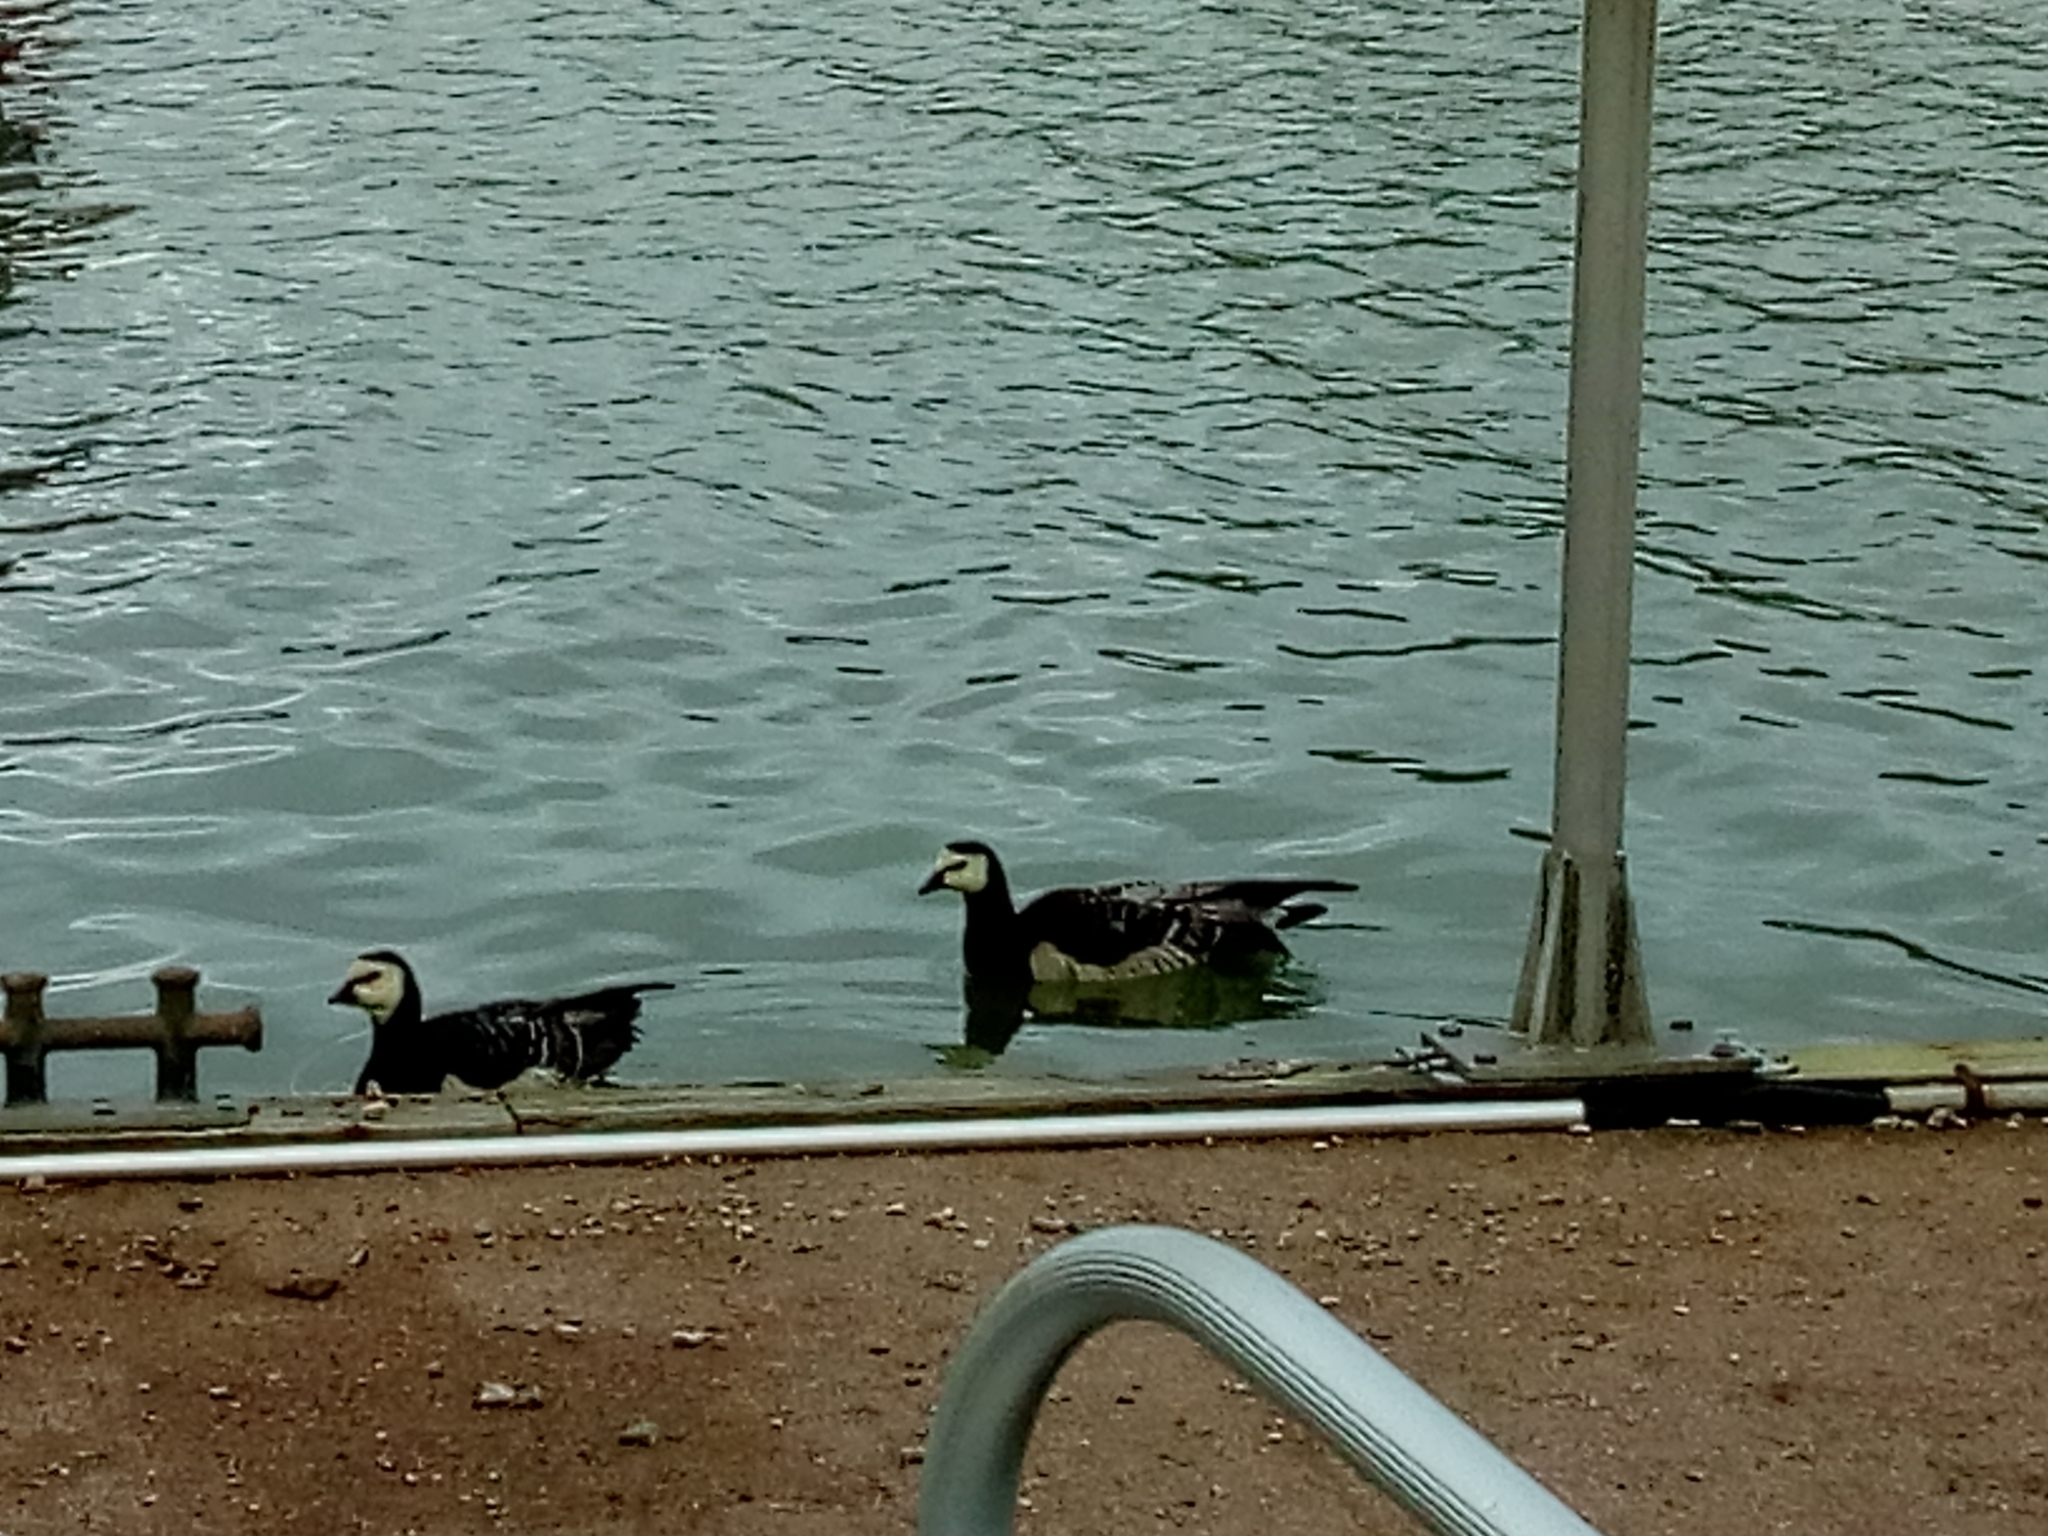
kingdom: Animalia
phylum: Chordata
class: Aves
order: Anseriformes
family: Anatidae
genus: Branta
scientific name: Branta leucopsis
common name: Barnacle goose
